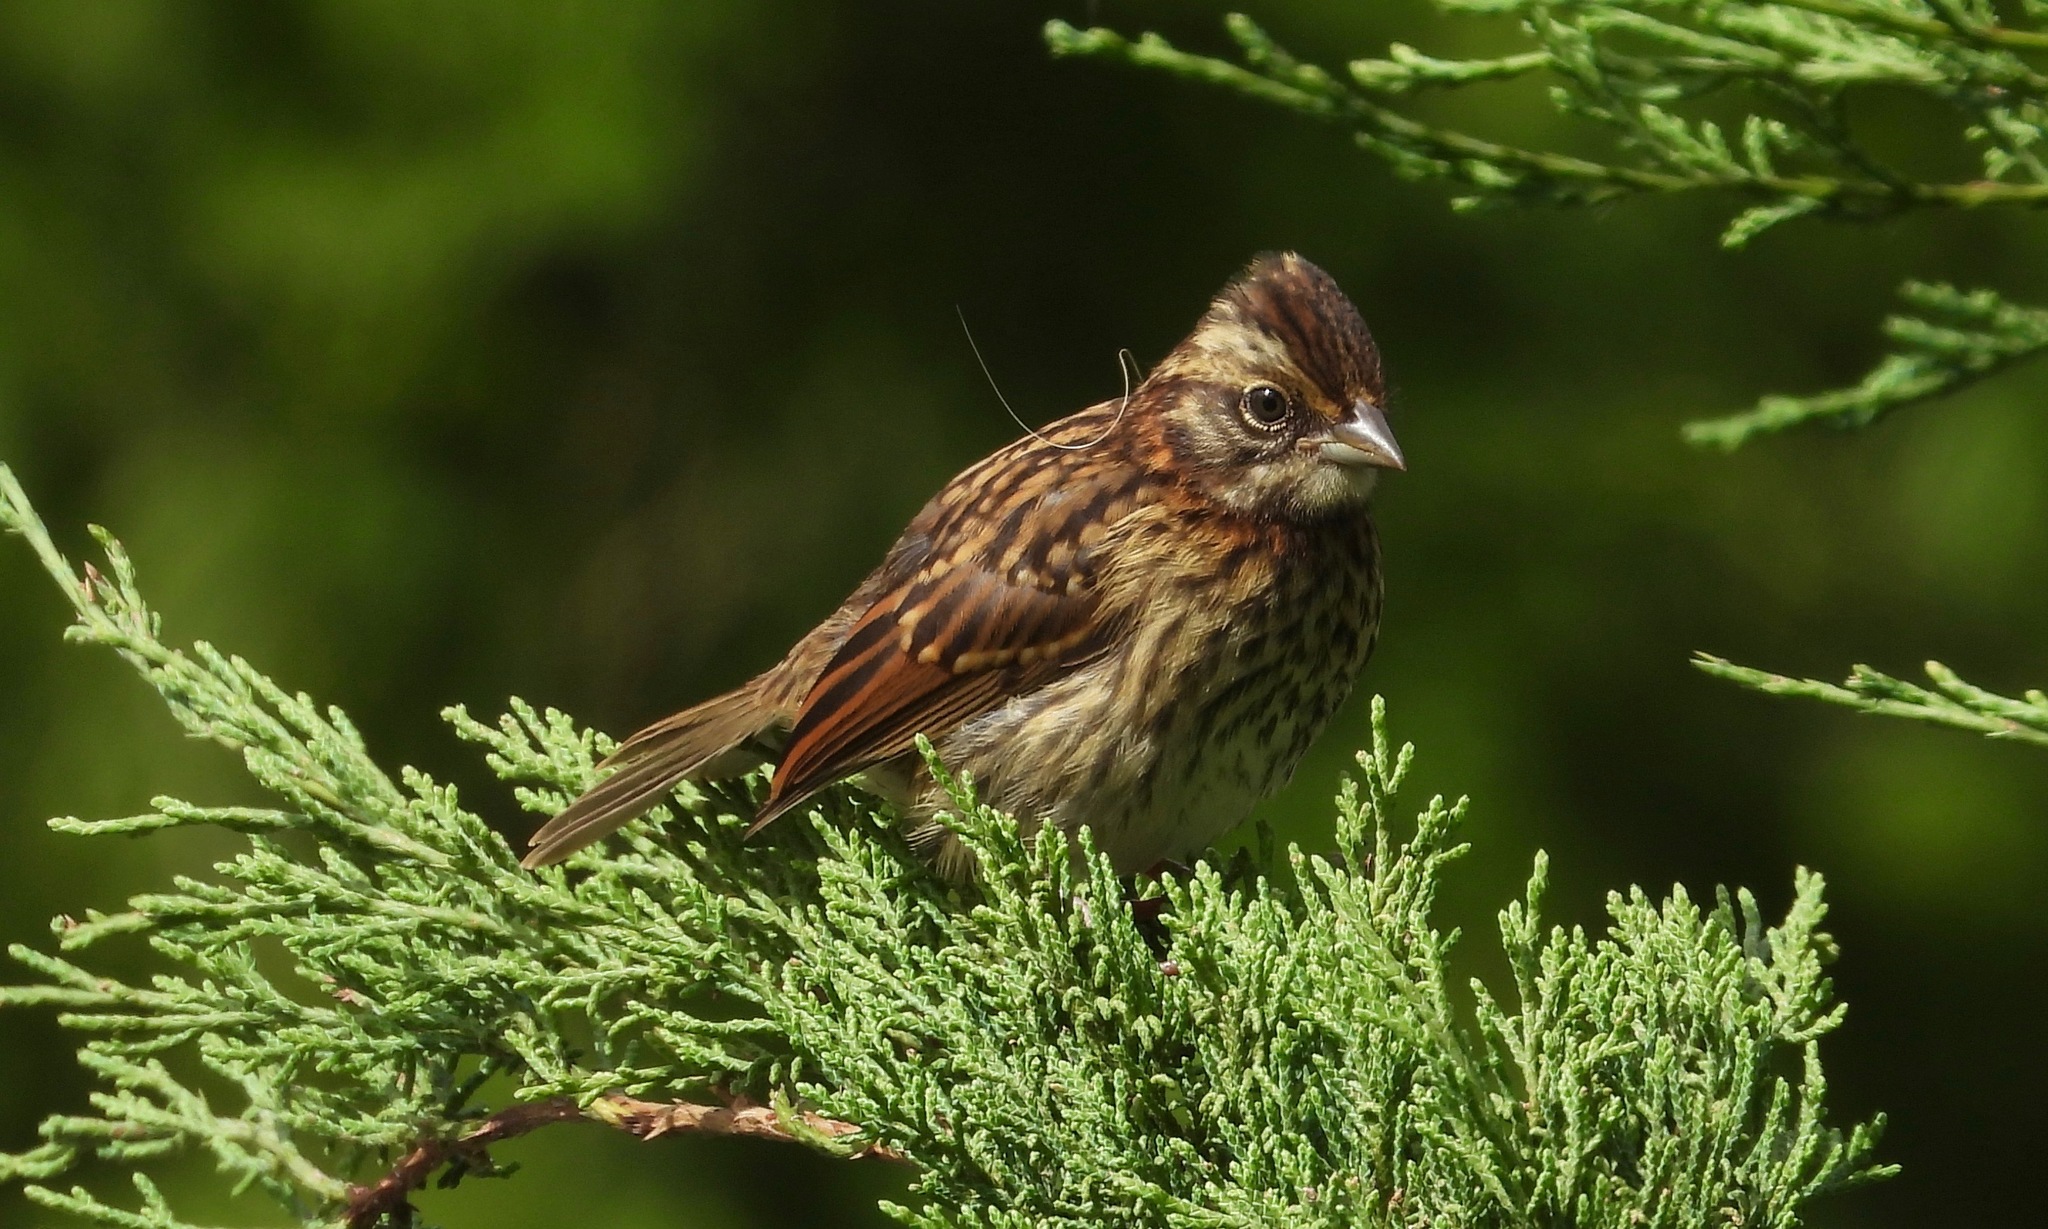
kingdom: Animalia
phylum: Chordata
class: Aves
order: Passeriformes
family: Passerellidae
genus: Zonotrichia
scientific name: Zonotrichia capensis
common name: Rufous-collared sparrow
